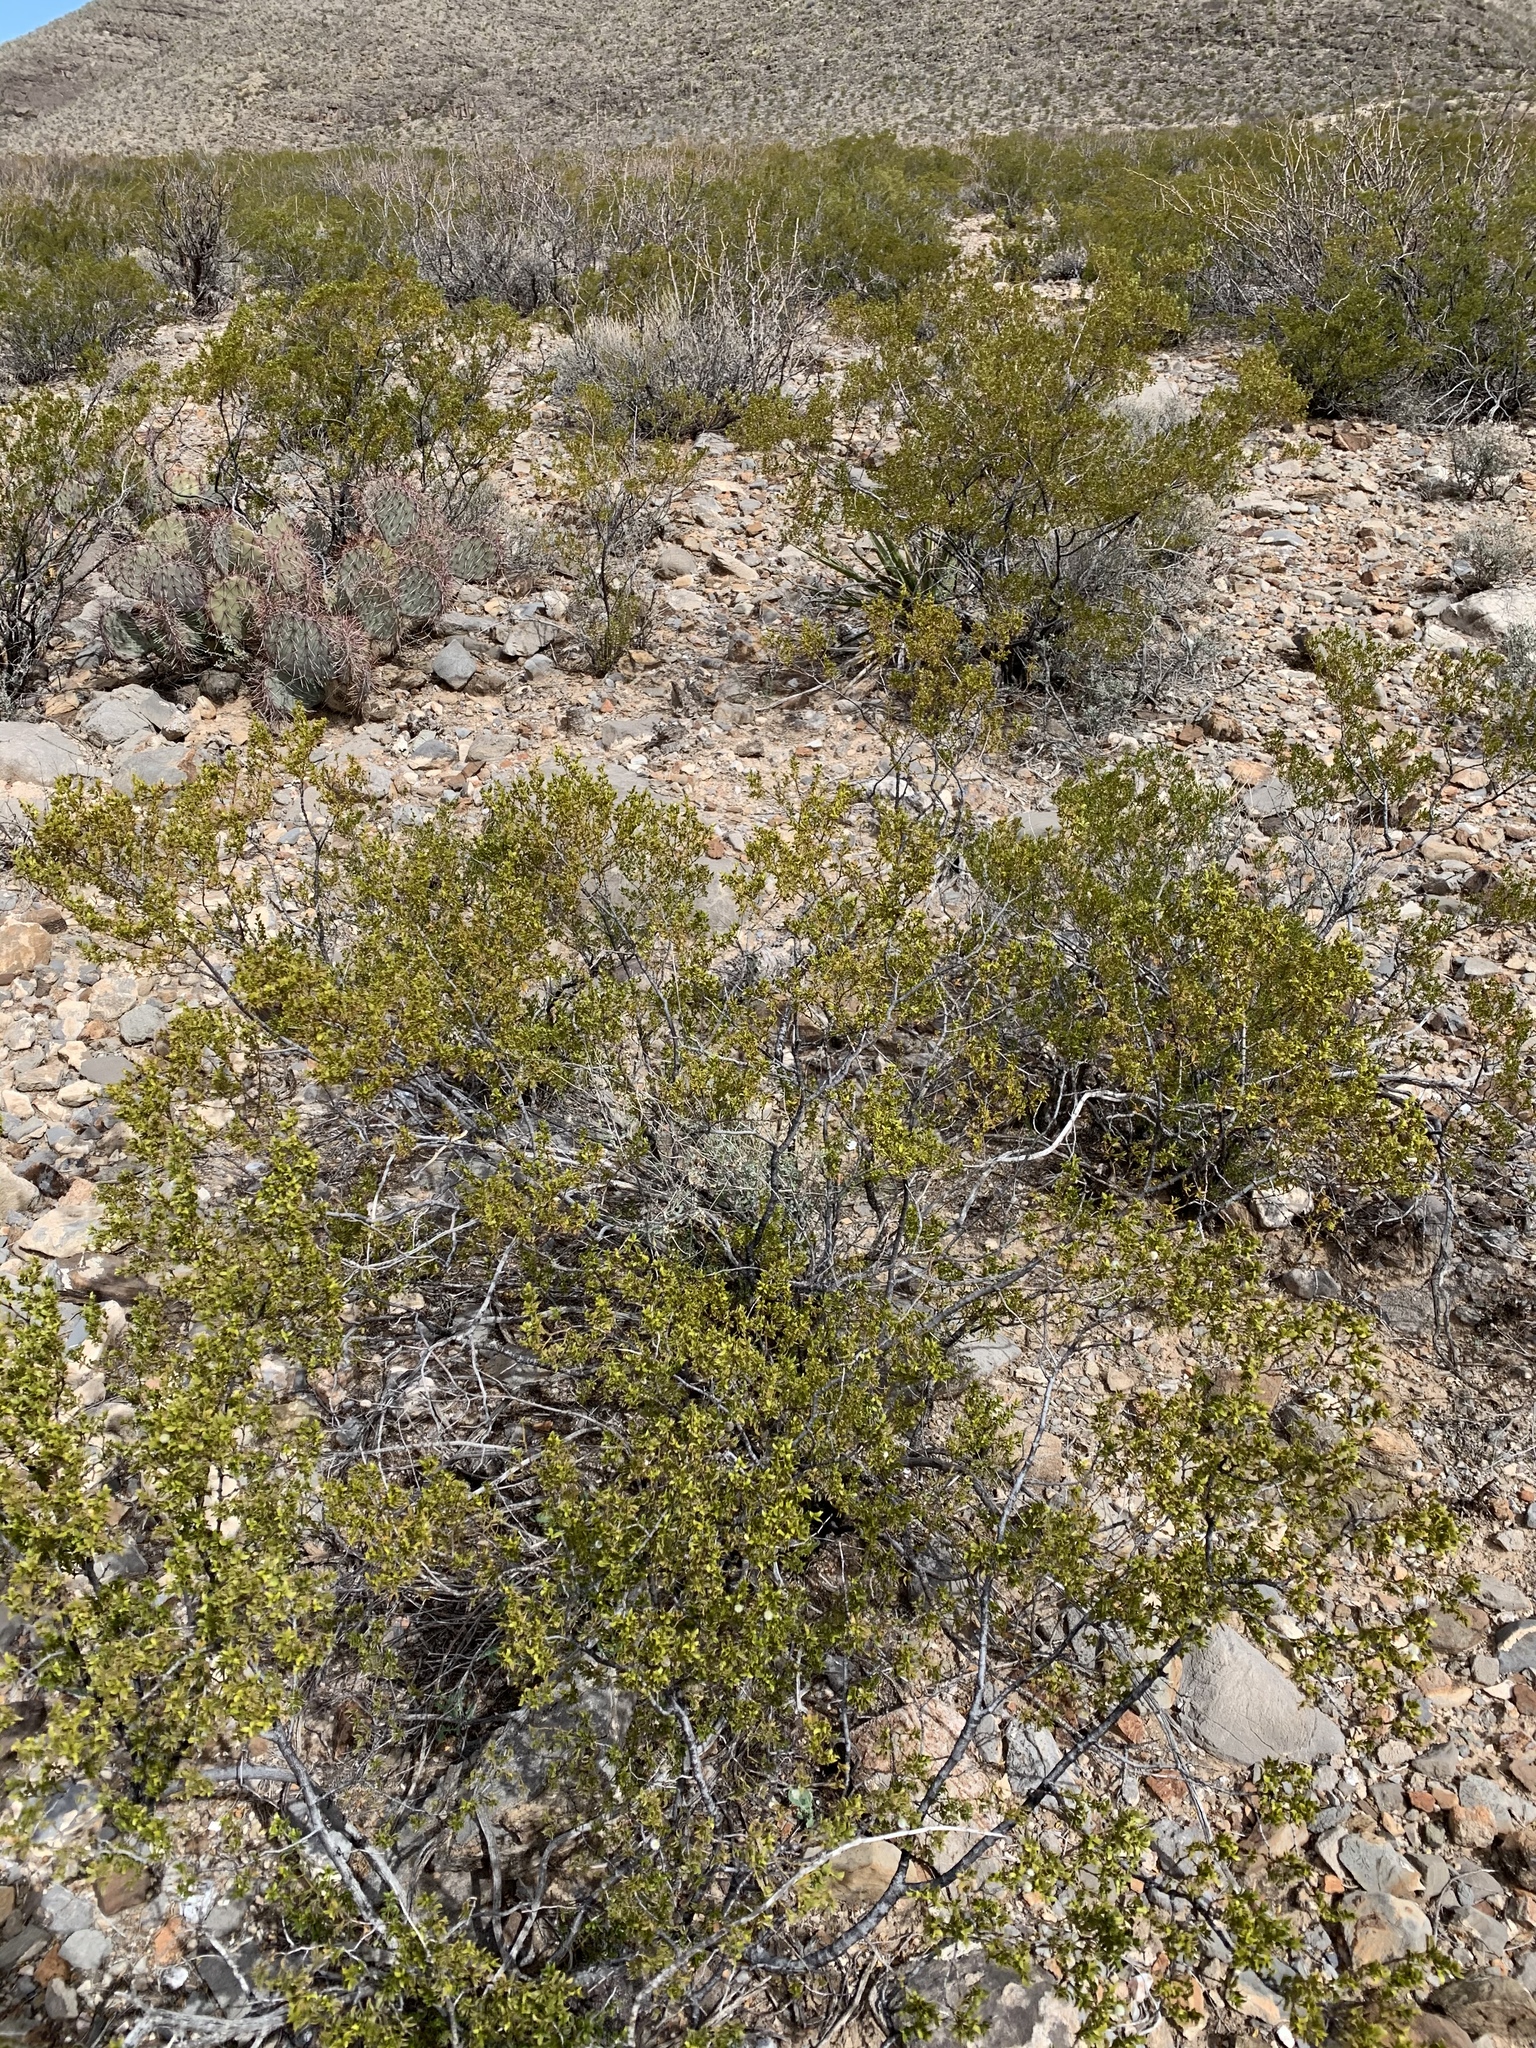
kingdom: Plantae
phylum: Tracheophyta
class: Magnoliopsida
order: Zygophyllales
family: Zygophyllaceae
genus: Larrea
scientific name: Larrea tridentata
